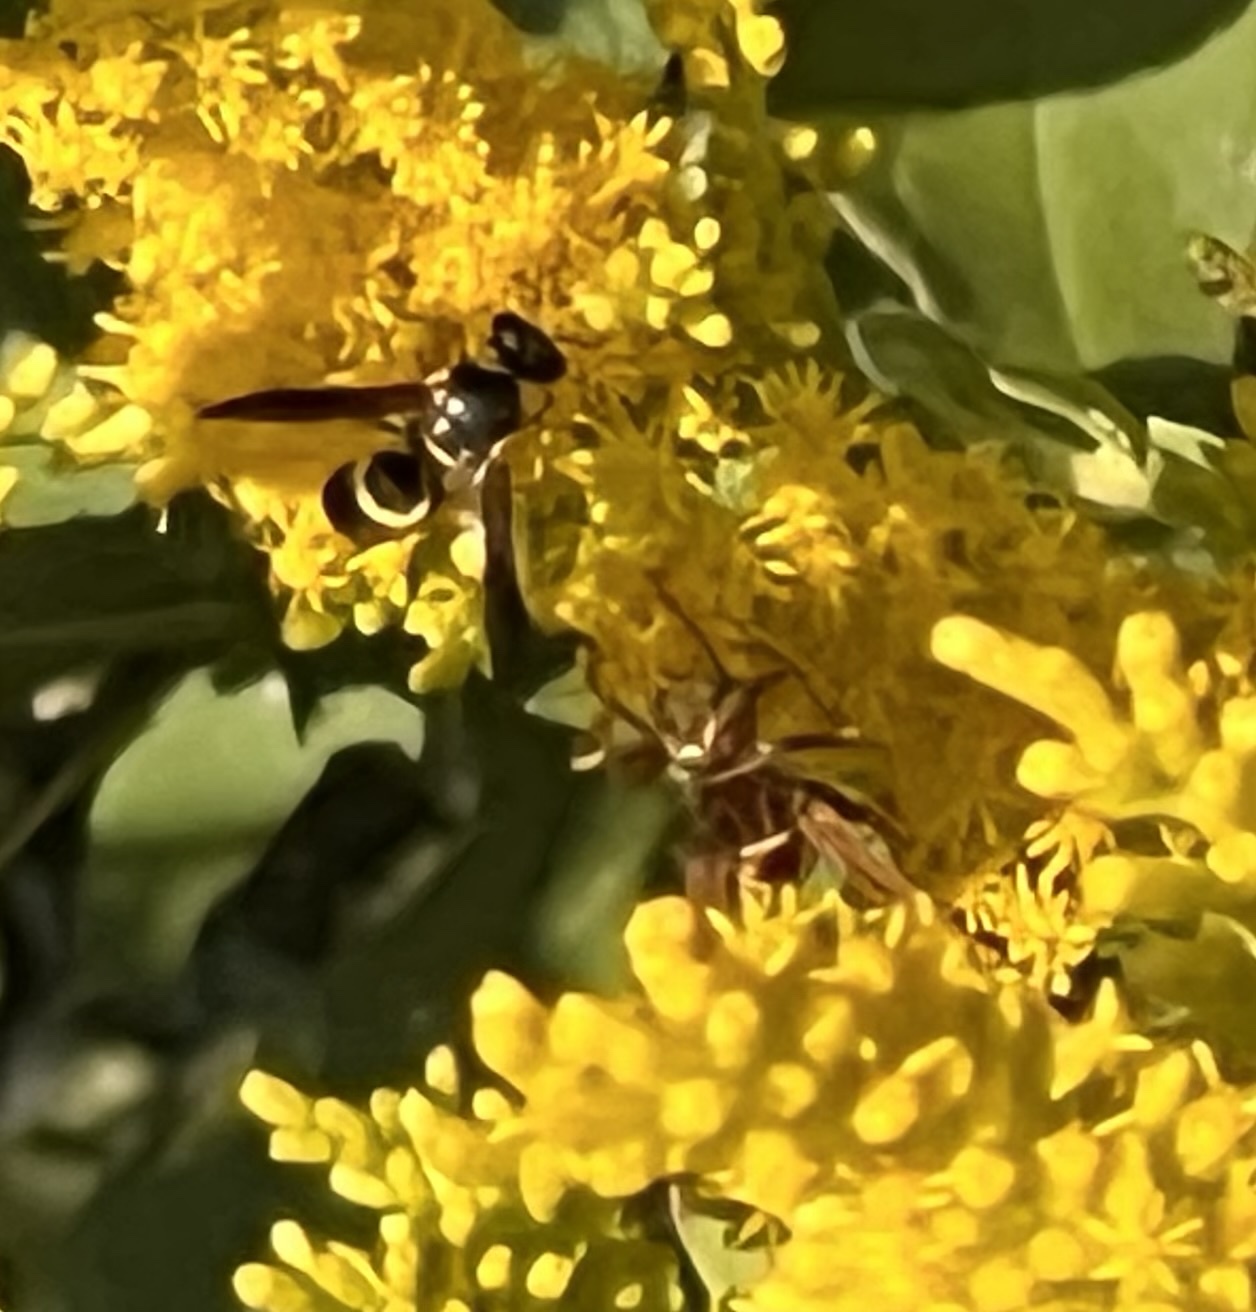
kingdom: Animalia
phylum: Arthropoda
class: Insecta
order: Hymenoptera
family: Eumenidae
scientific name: Eumenidae
